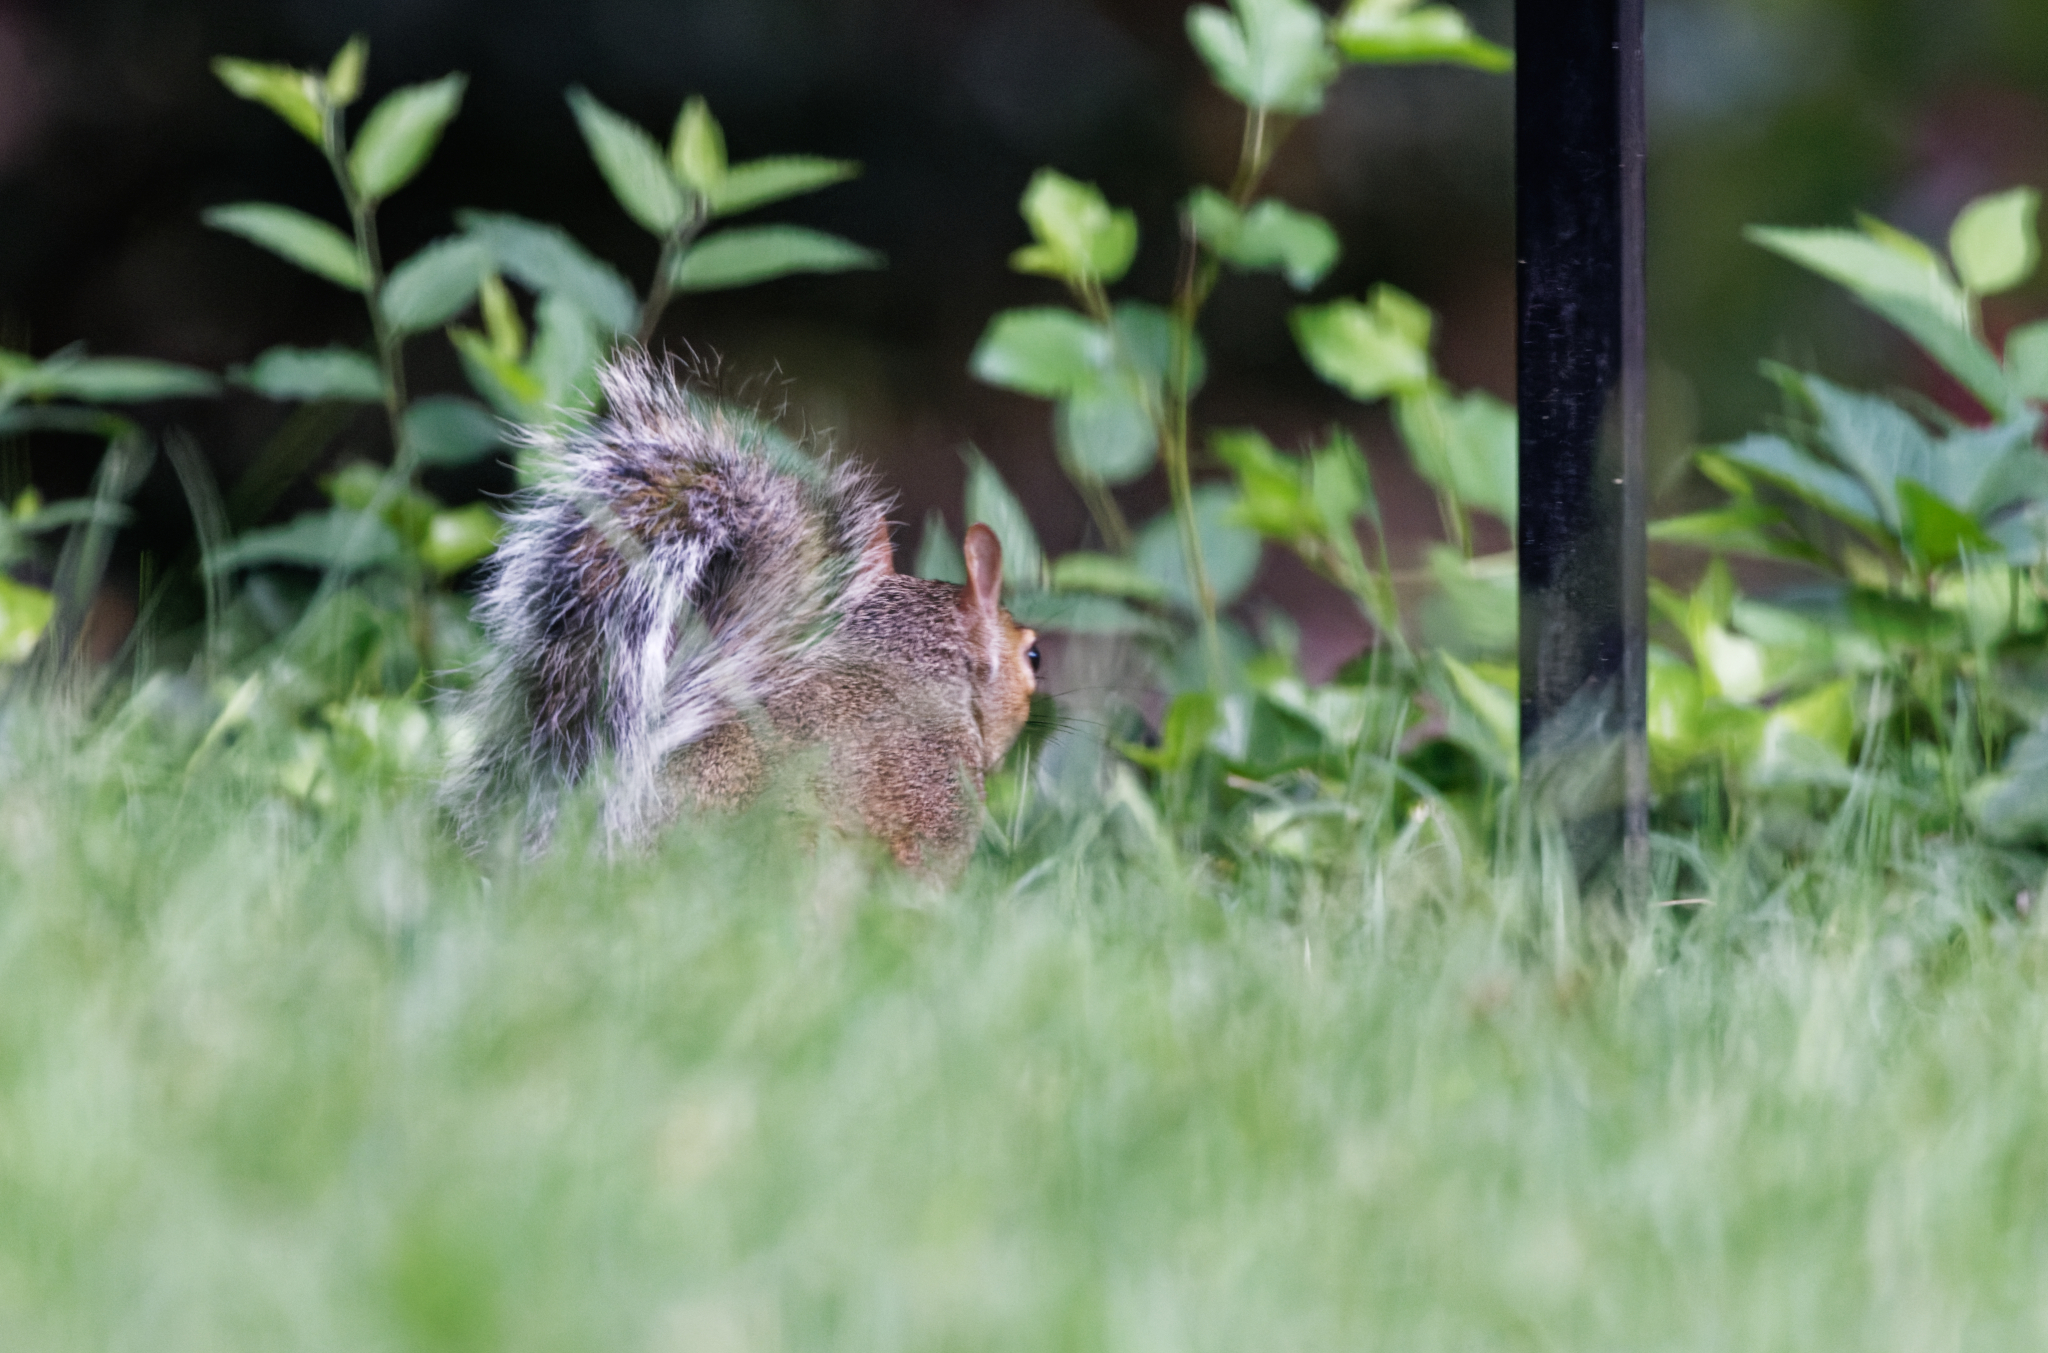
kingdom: Animalia
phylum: Chordata
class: Mammalia
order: Rodentia
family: Sciuridae
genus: Sciurus
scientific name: Sciurus carolinensis
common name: Eastern gray squirrel
